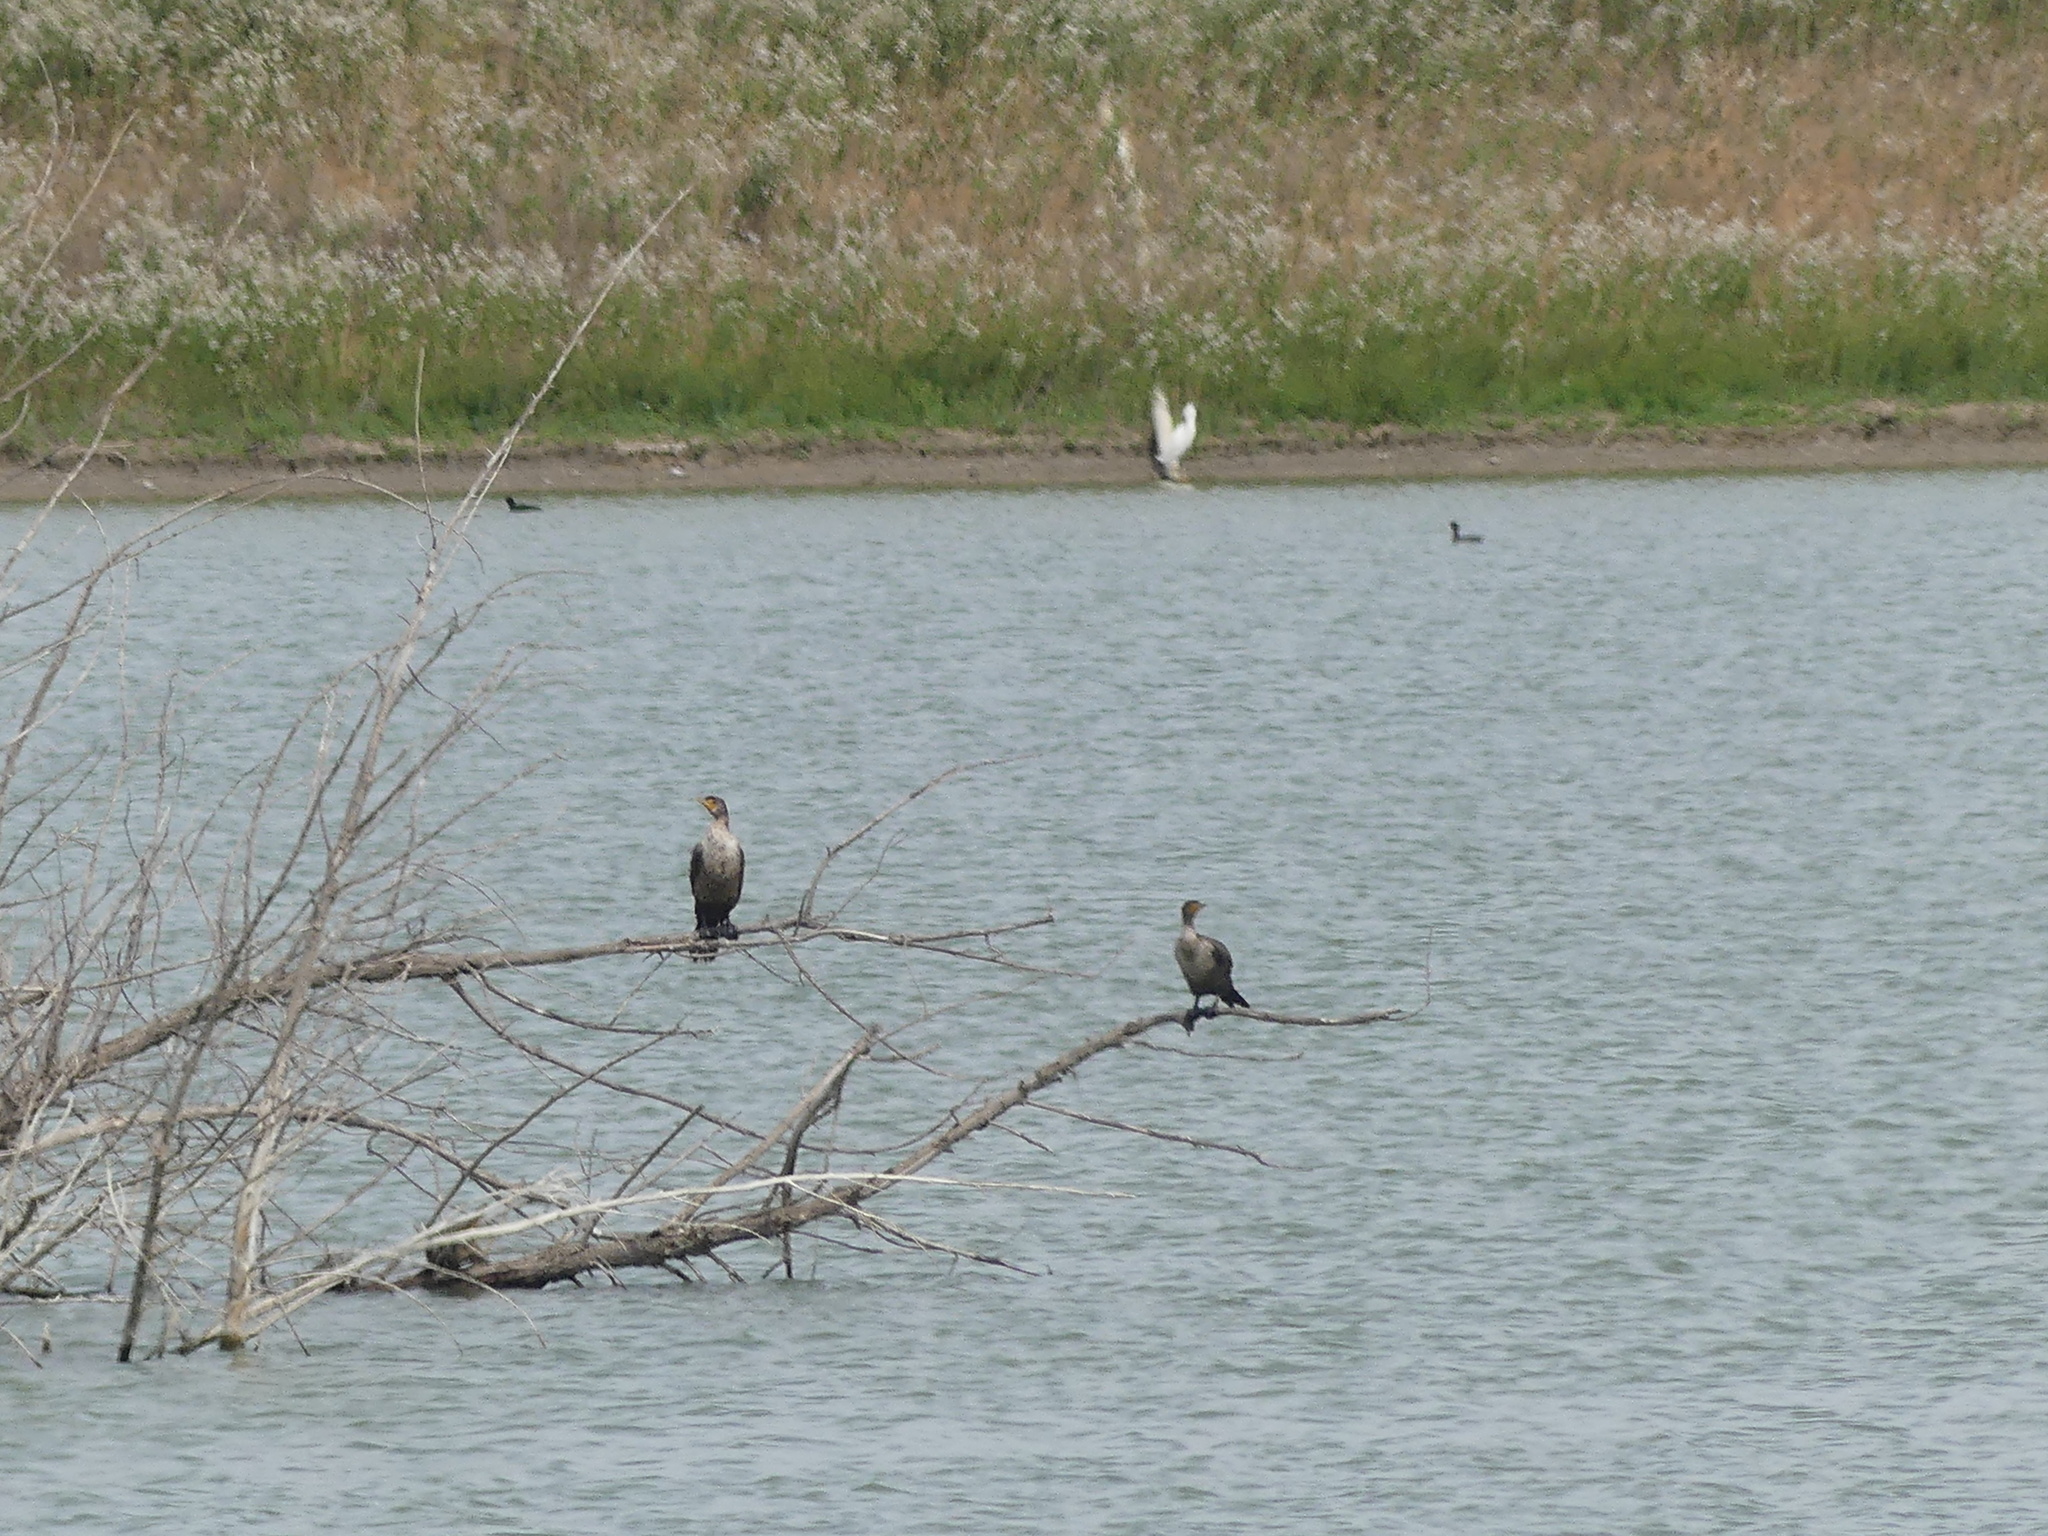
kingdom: Animalia
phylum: Chordata
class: Aves
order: Suliformes
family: Phalacrocoracidae
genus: Phalacrocorax
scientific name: Phalacrocorax auritus
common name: Double-crested cormorant
